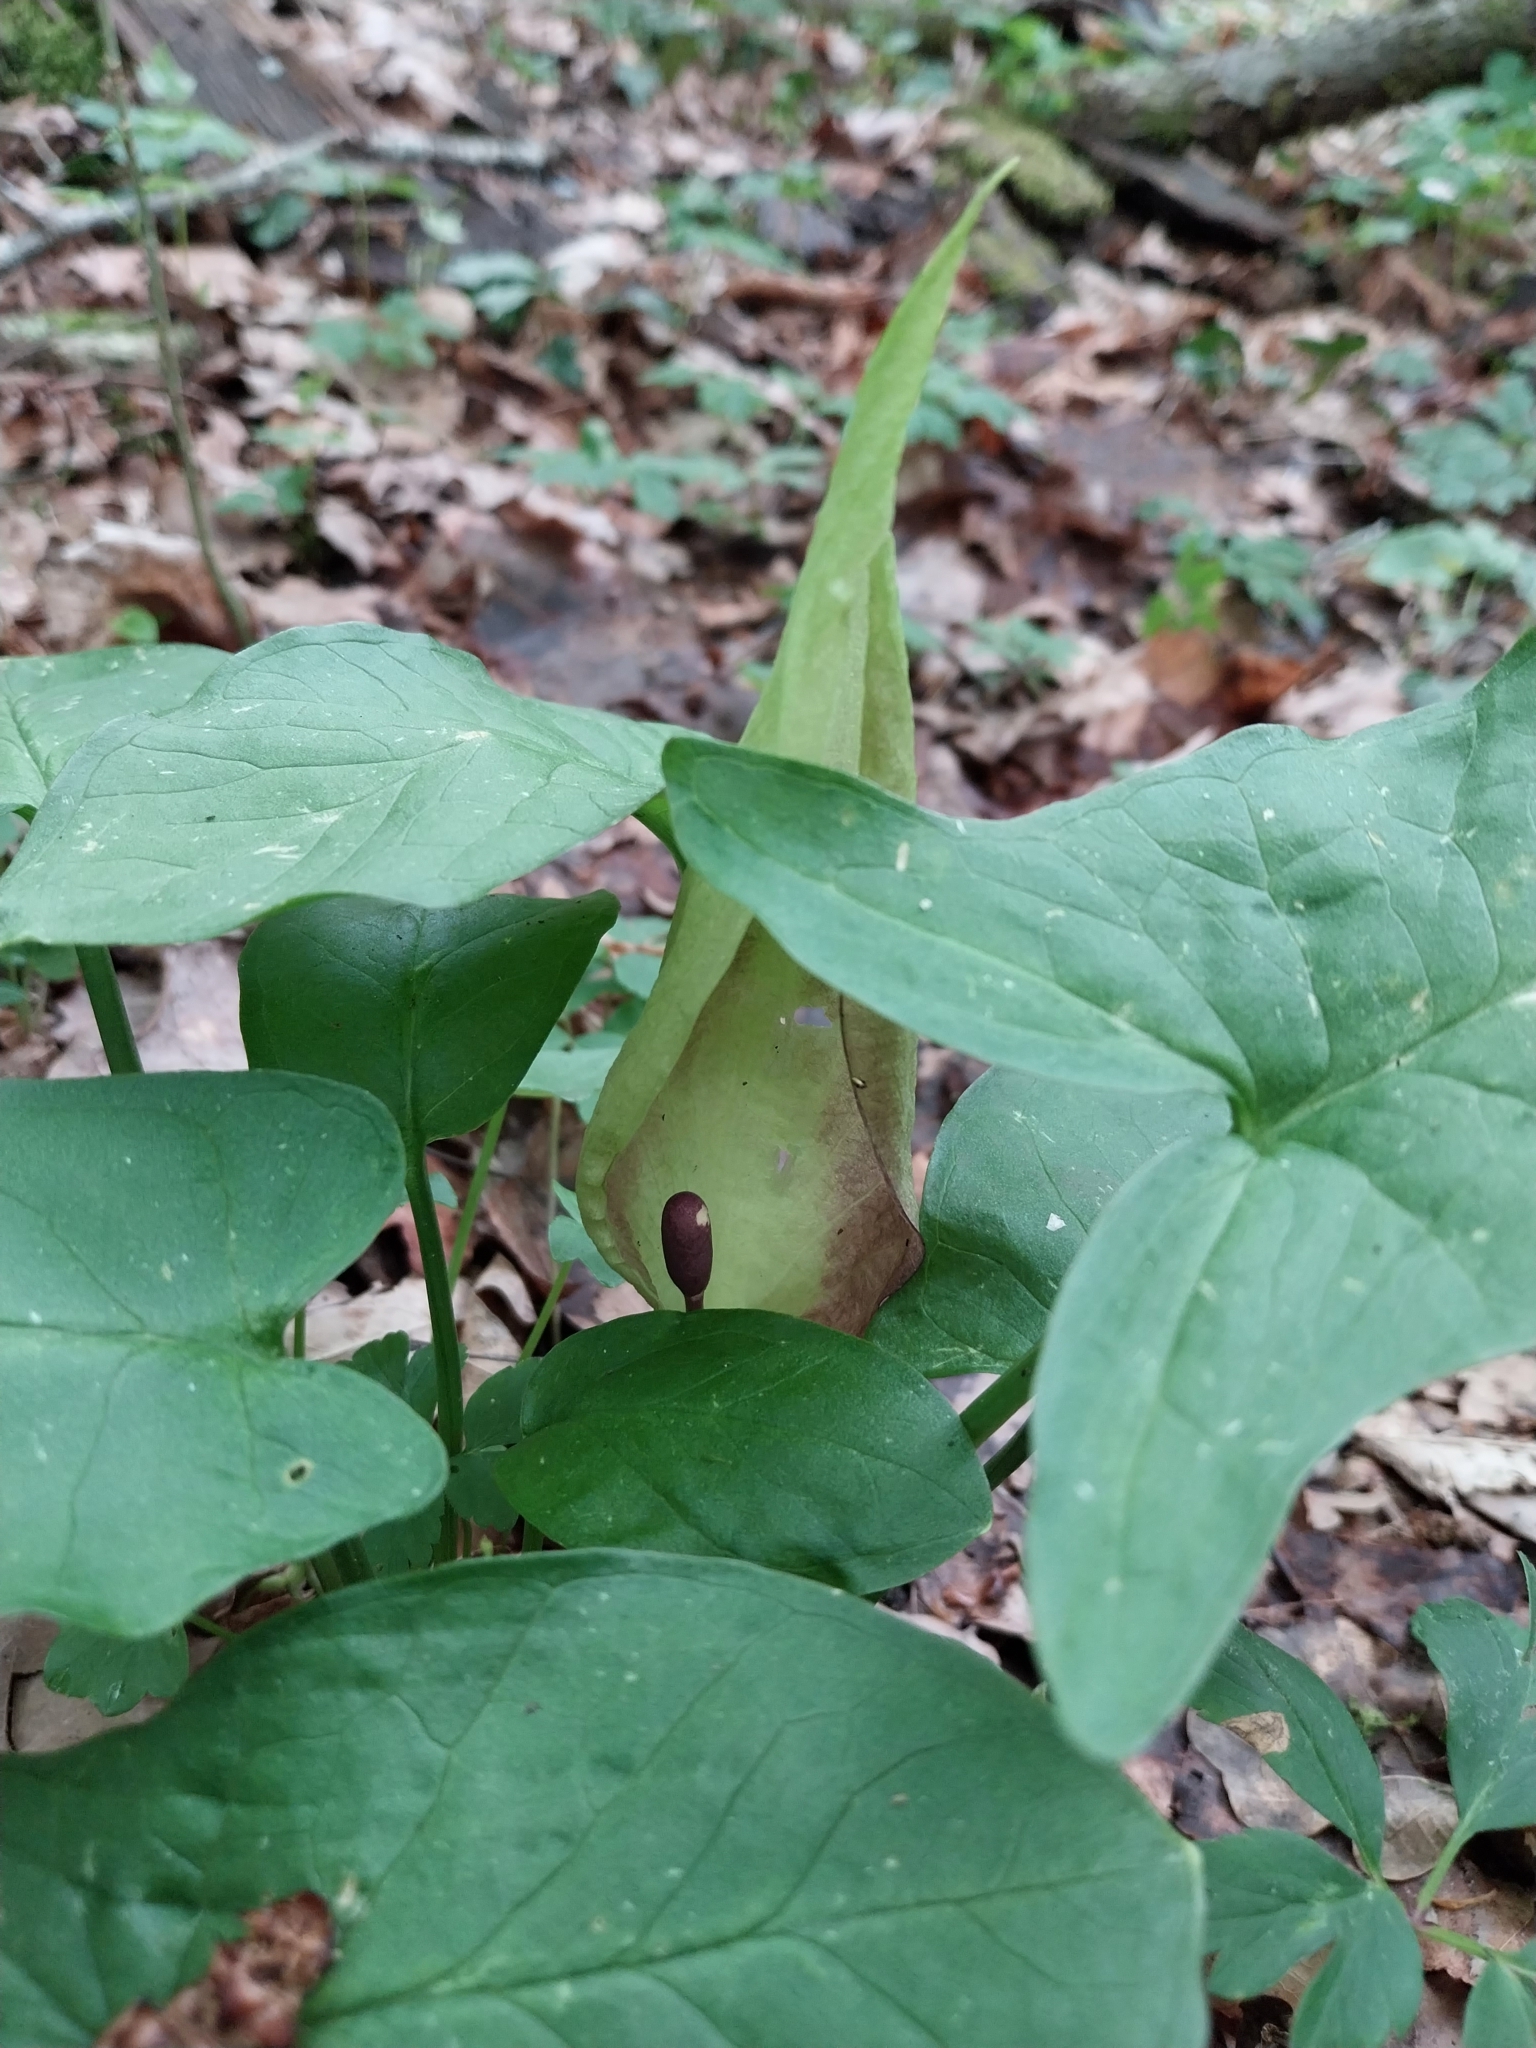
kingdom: Plantae
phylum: Tracheophyta
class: Liliopsida
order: Alismatales
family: Araceae
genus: Arum
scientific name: Arum maculatum
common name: Lords-and-ladies
